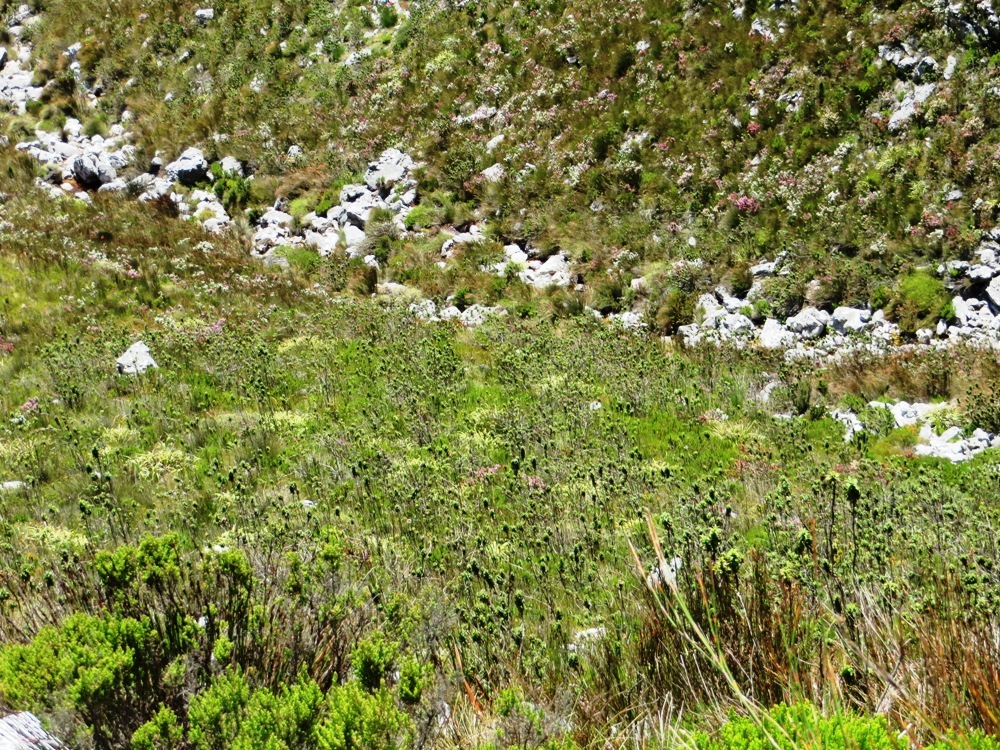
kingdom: Plantae
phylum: Tracheophyta
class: Magnoliopsida
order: Rosales
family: Rosaceae
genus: Cliffortia
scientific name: Cliffortia recurvata
